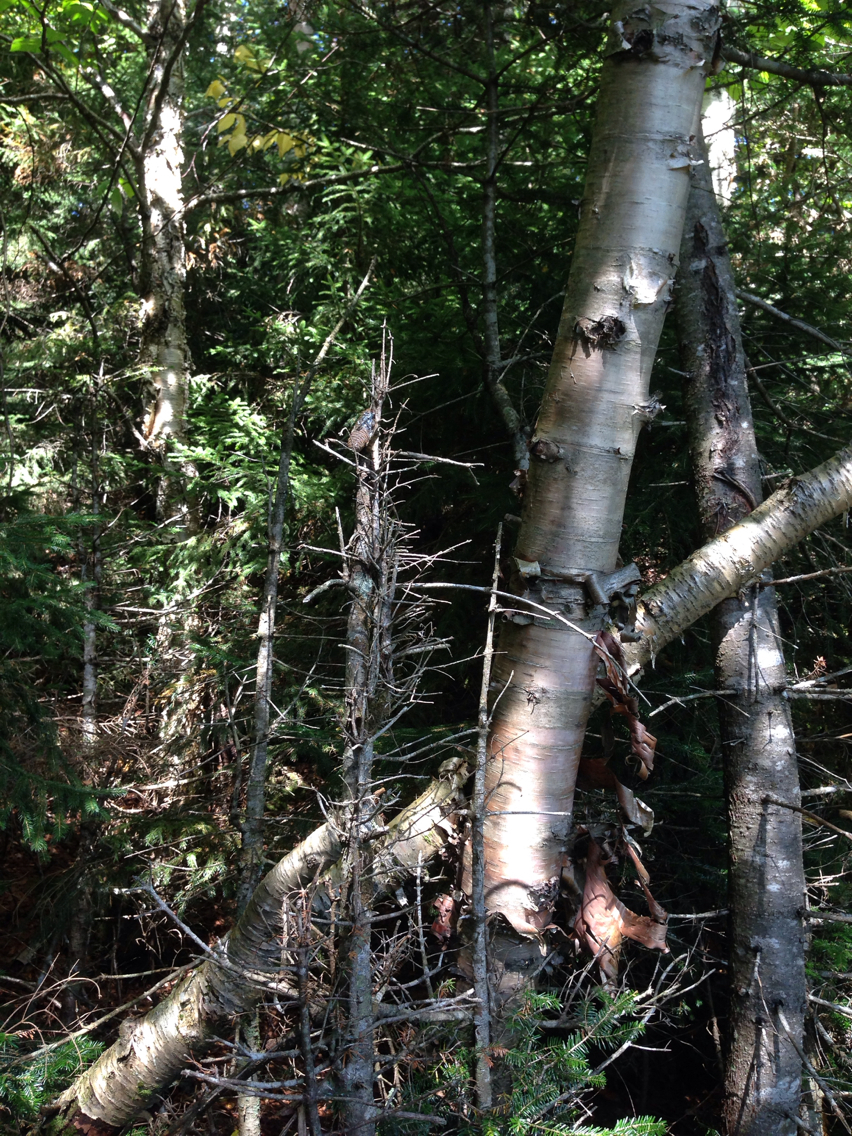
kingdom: Plantae
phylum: Tracheophyta
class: Magnoliopsida
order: Fagales
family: Betulaceae
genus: Betula
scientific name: Betula cordifolia
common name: Mountain white birch
